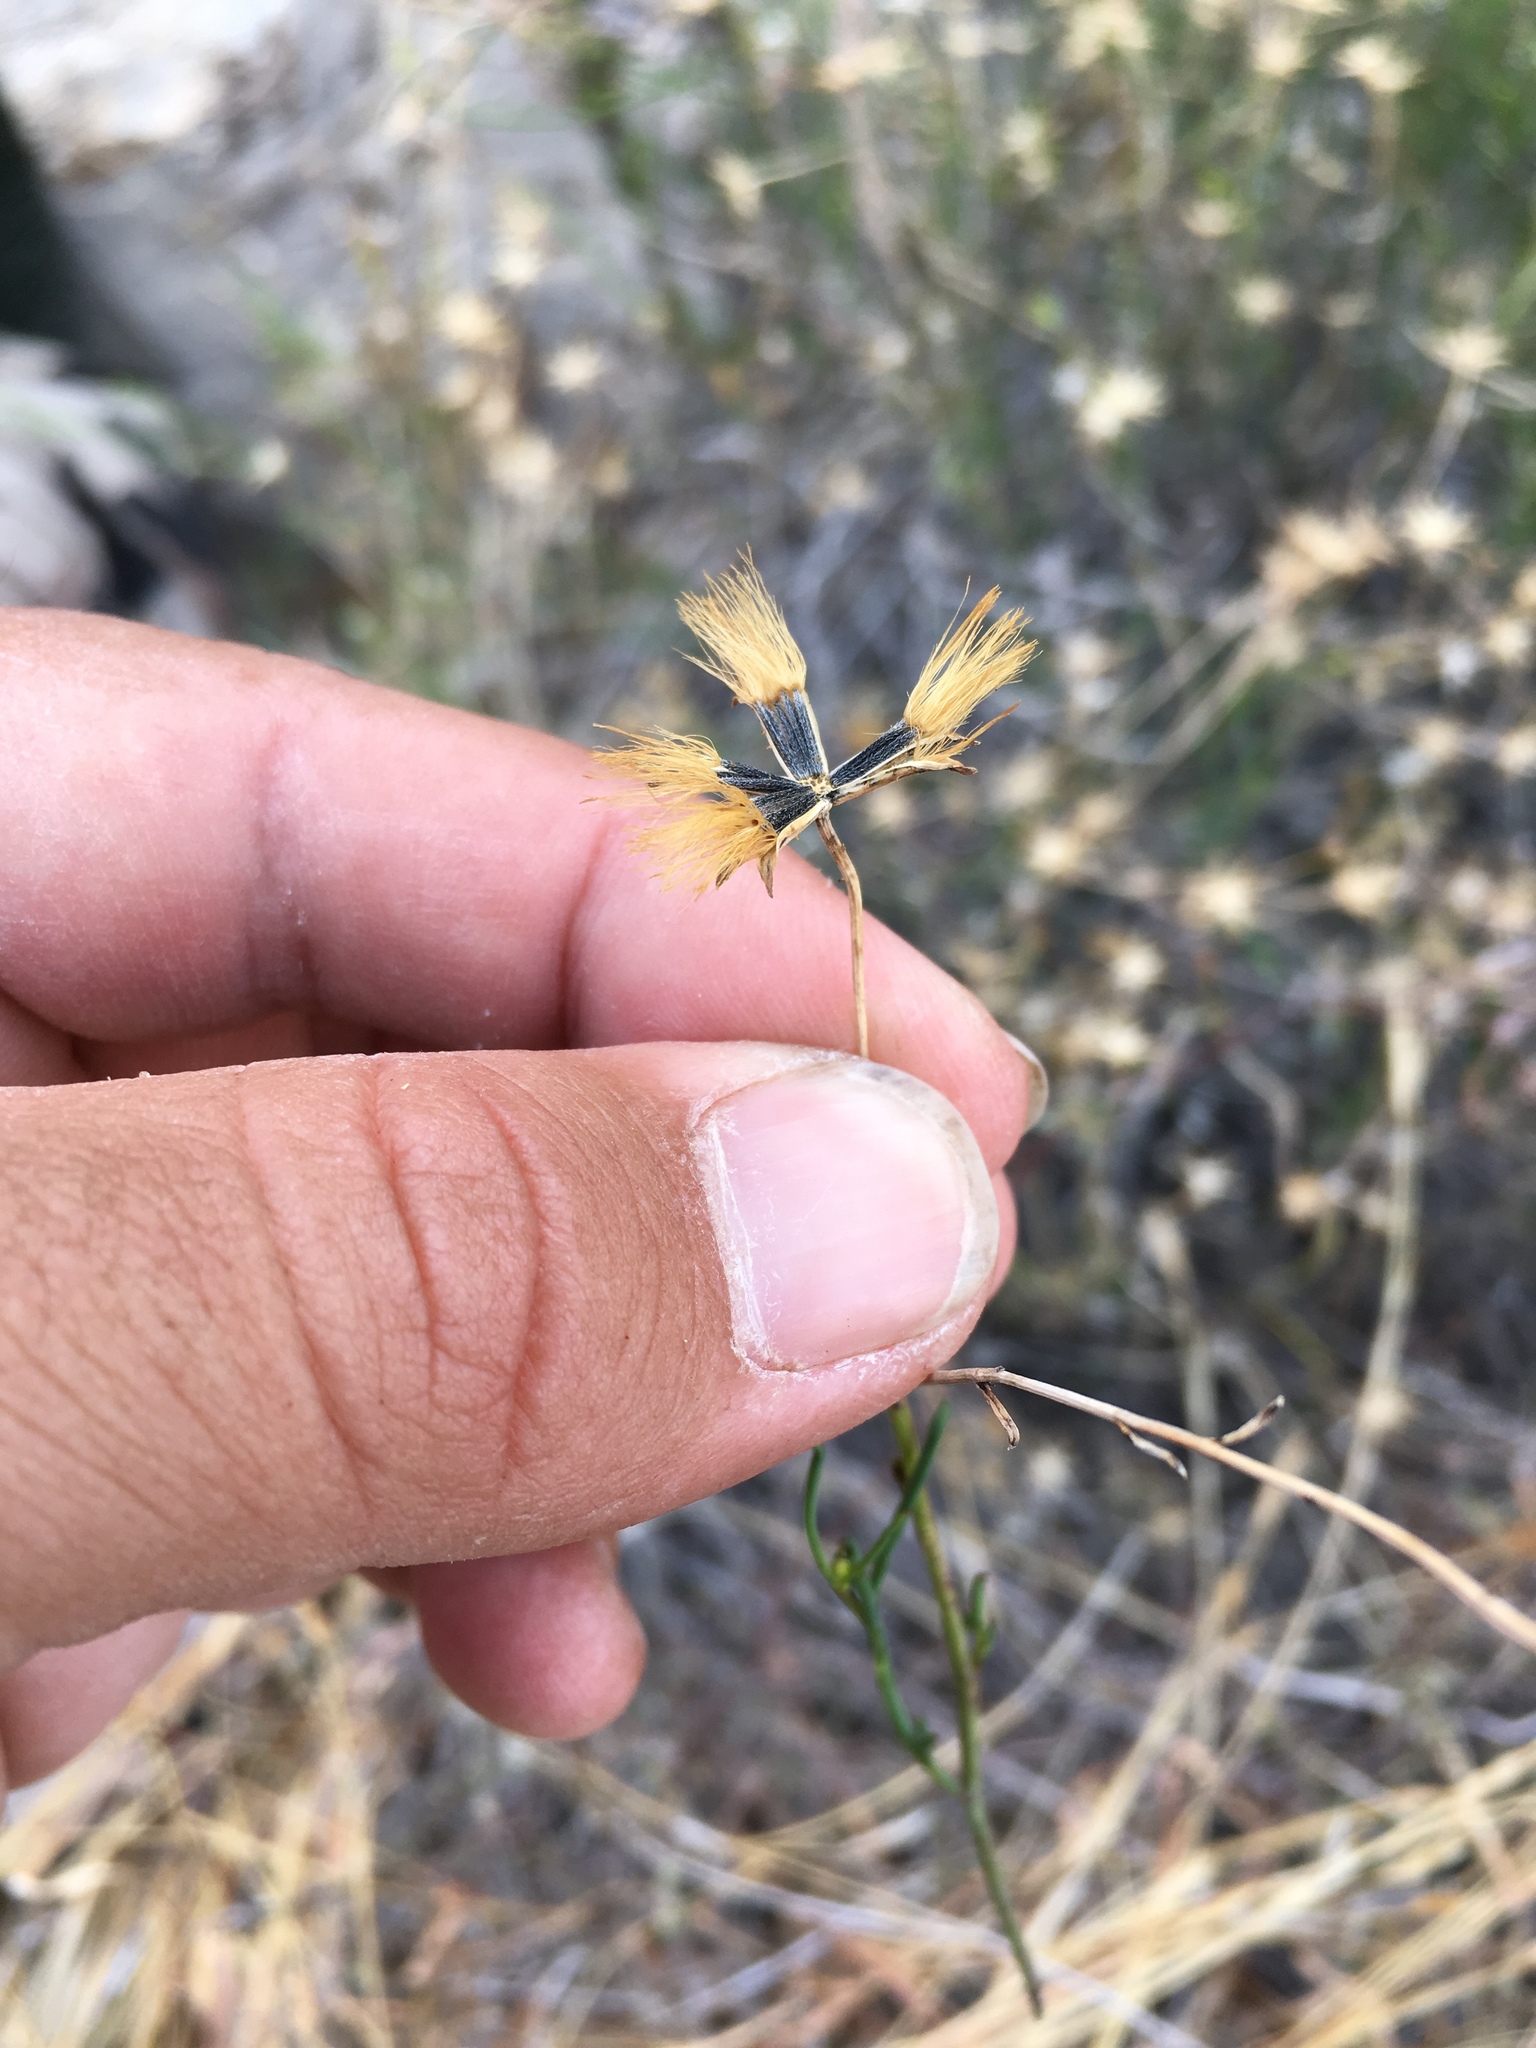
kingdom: Plantae
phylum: Tracheophyta
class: Magnoliopsida
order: Asterales
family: Asteraceae
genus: Porophyllum
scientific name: Porophyllum scoparium
